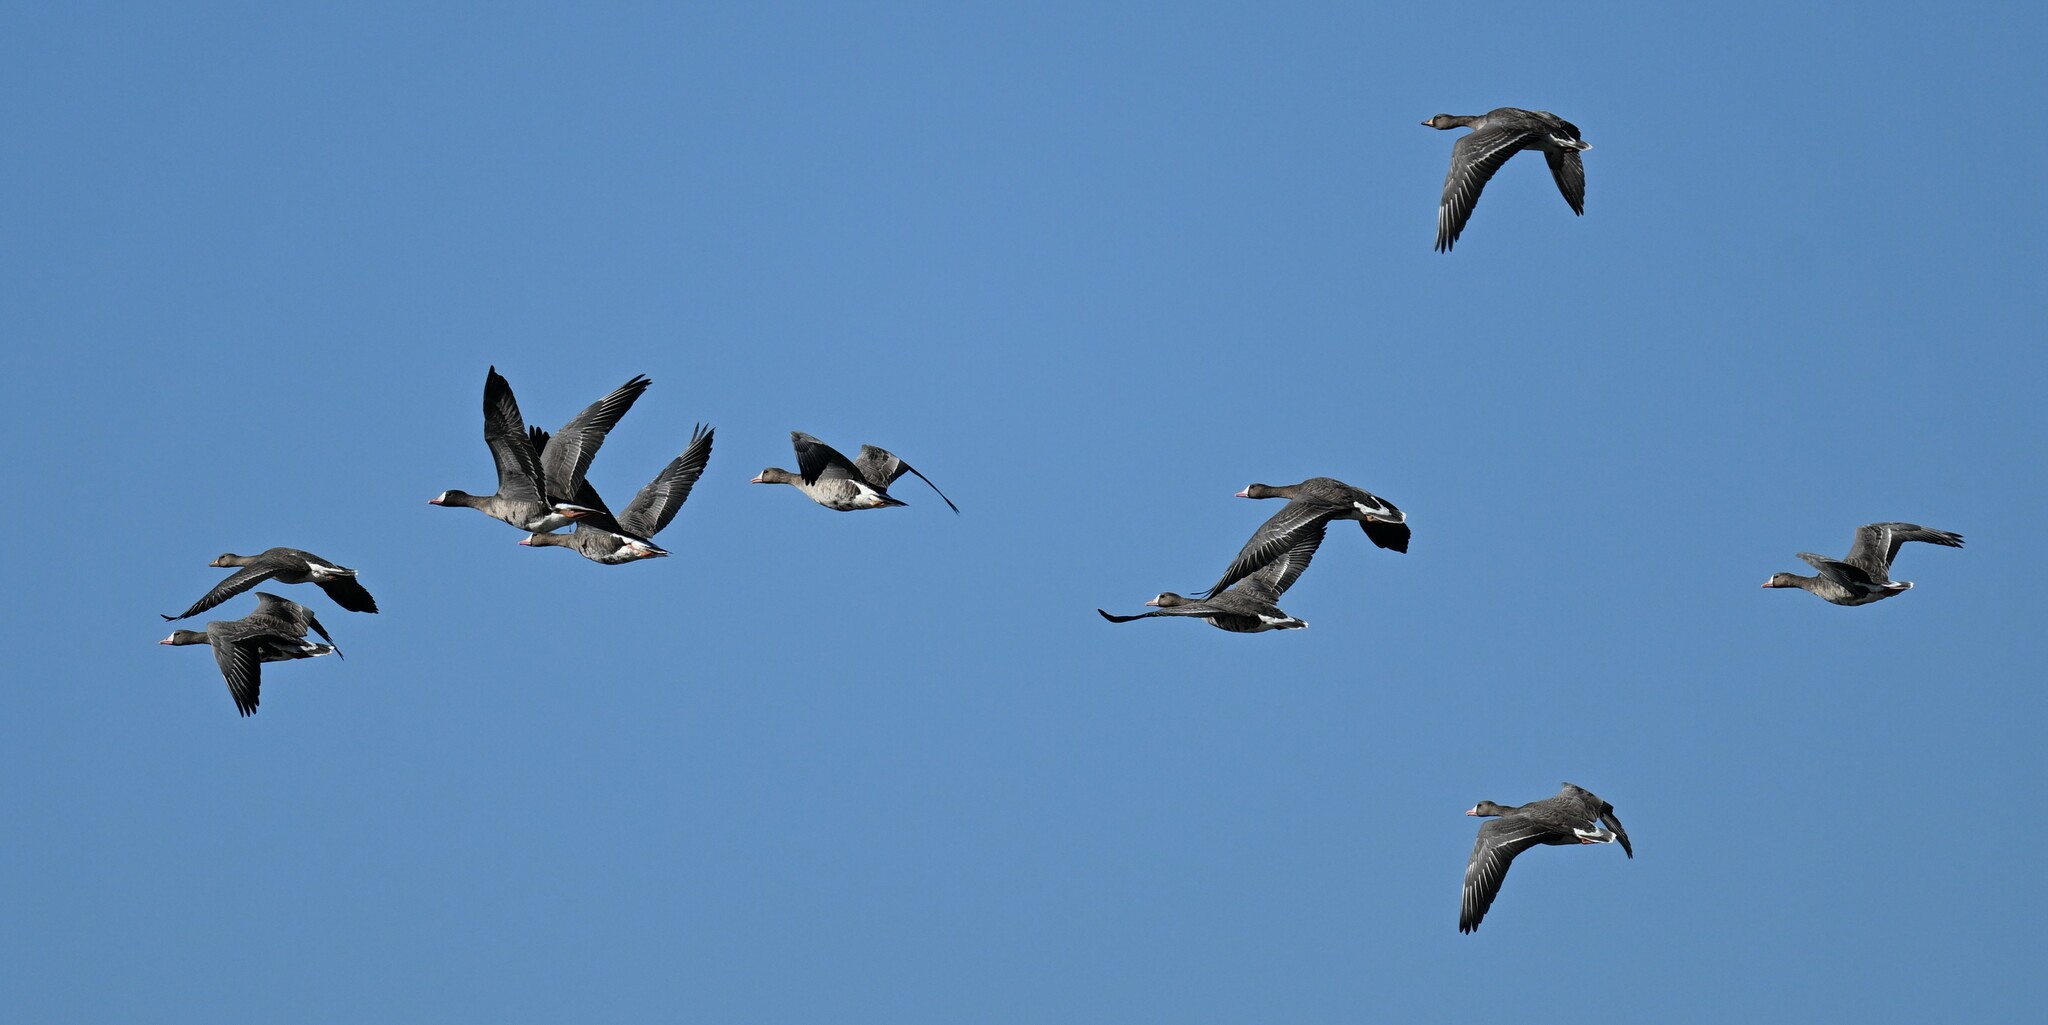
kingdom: Animalia
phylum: Chordata
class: Aves
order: Anseriformes
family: Anatidae
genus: Anser
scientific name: Anser albifrons
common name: Greater white-fronted goose
